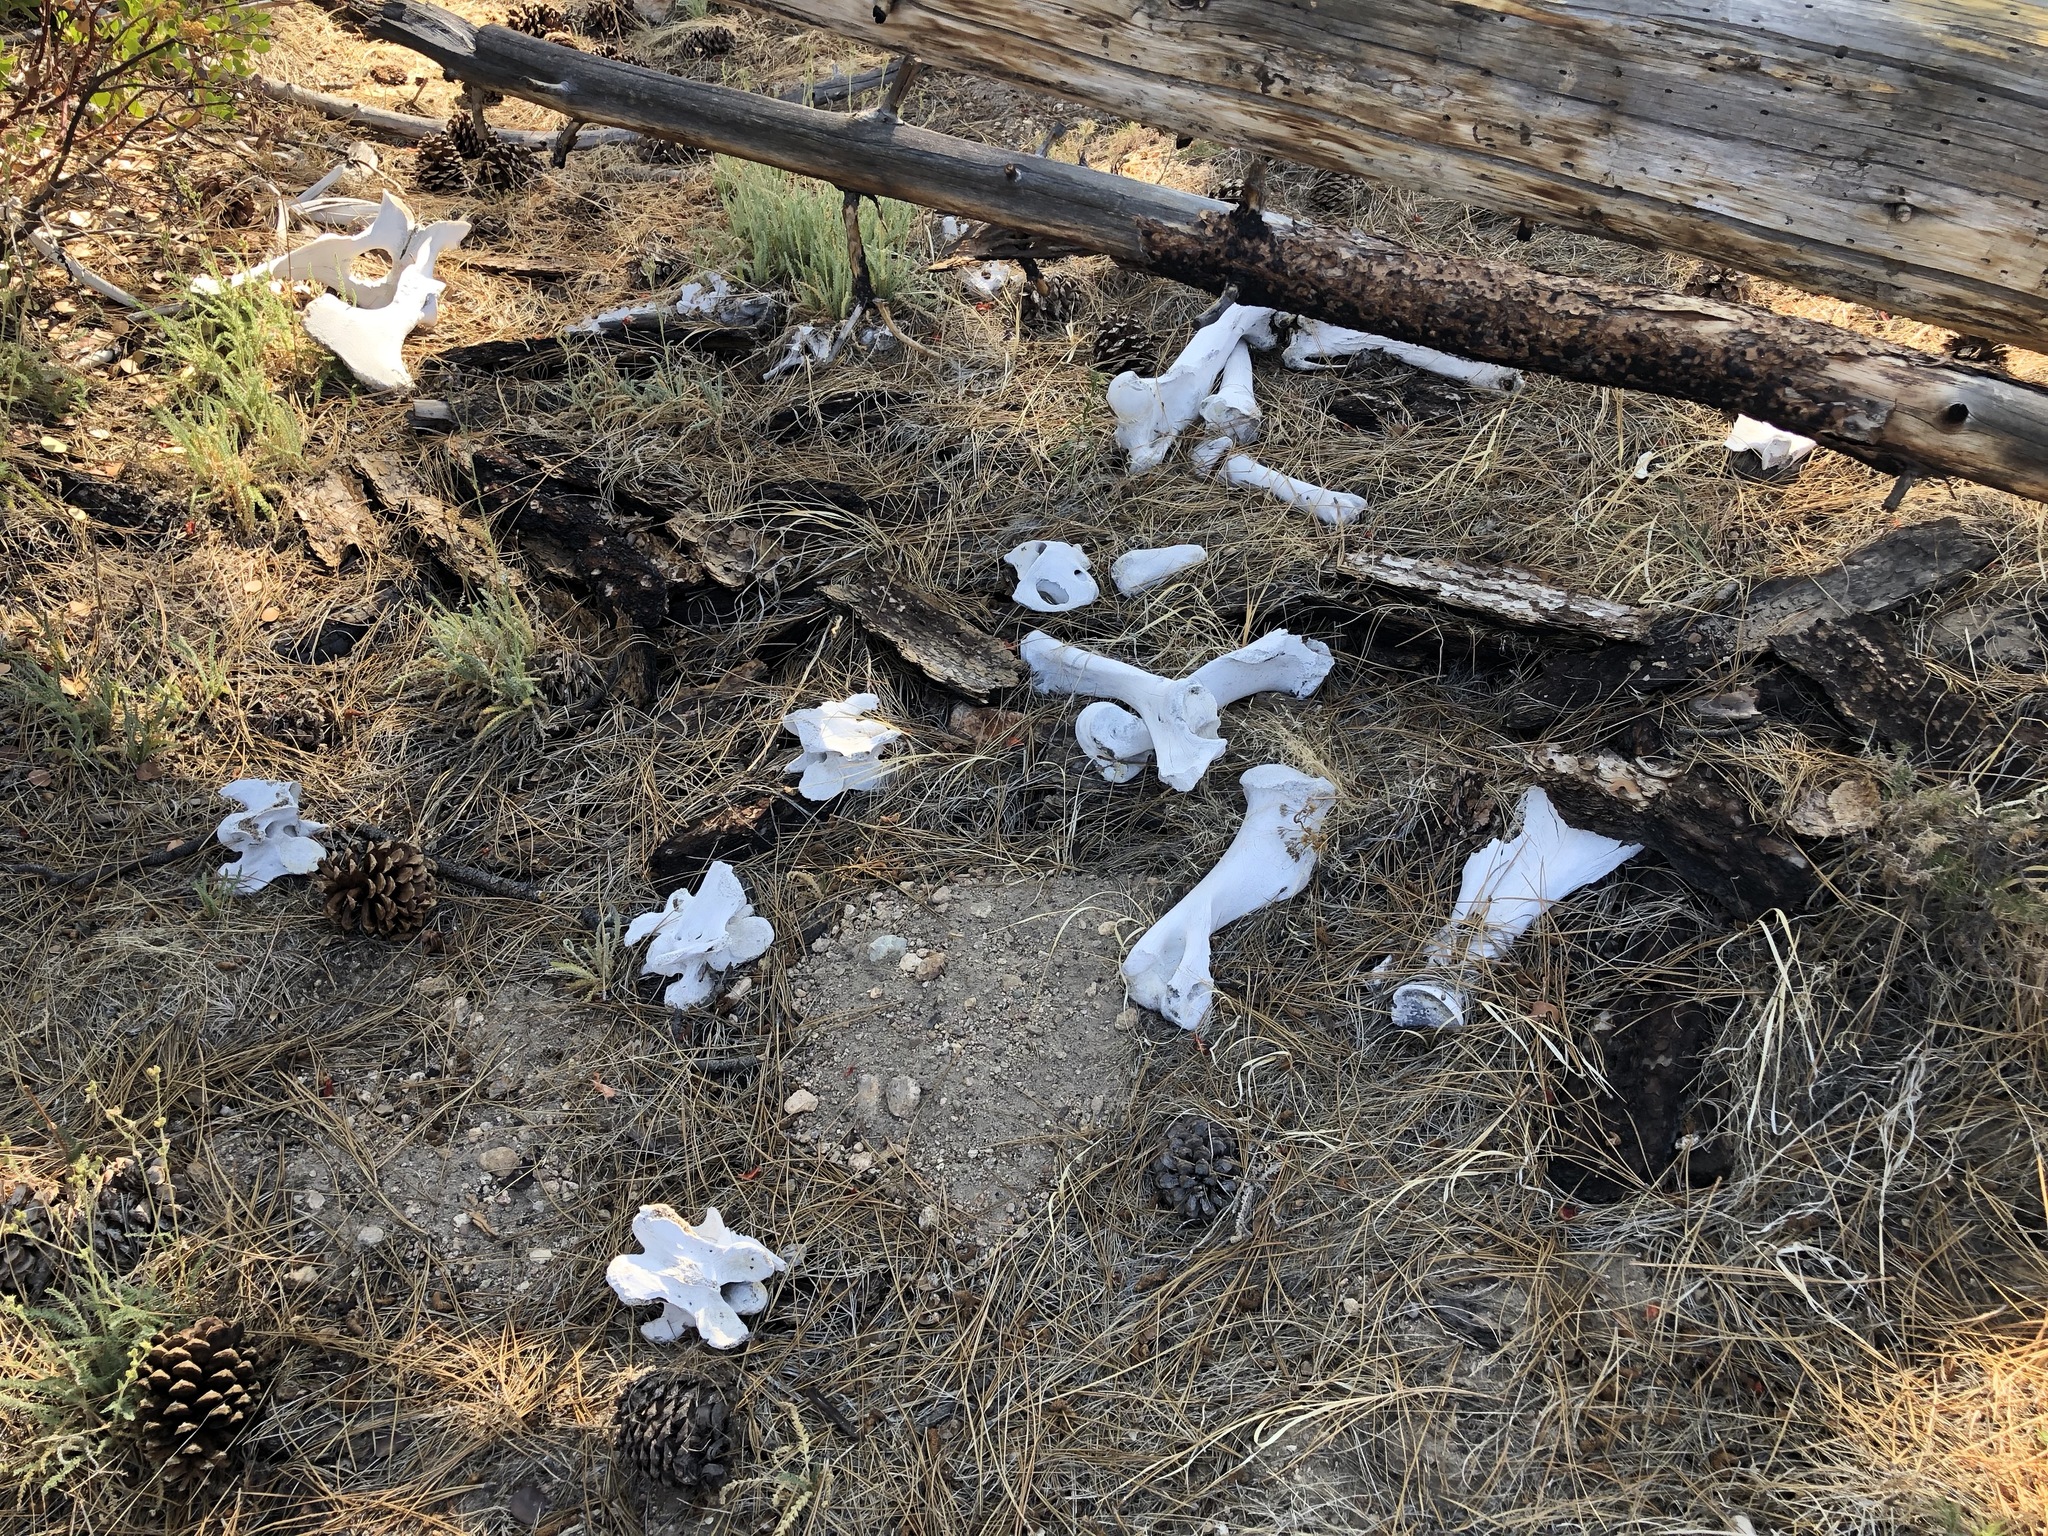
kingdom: Animalia
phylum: Chordata
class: Mammalia
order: Perissodactyla
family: Equidae
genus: Equus
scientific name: Equus caballus
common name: Horse
